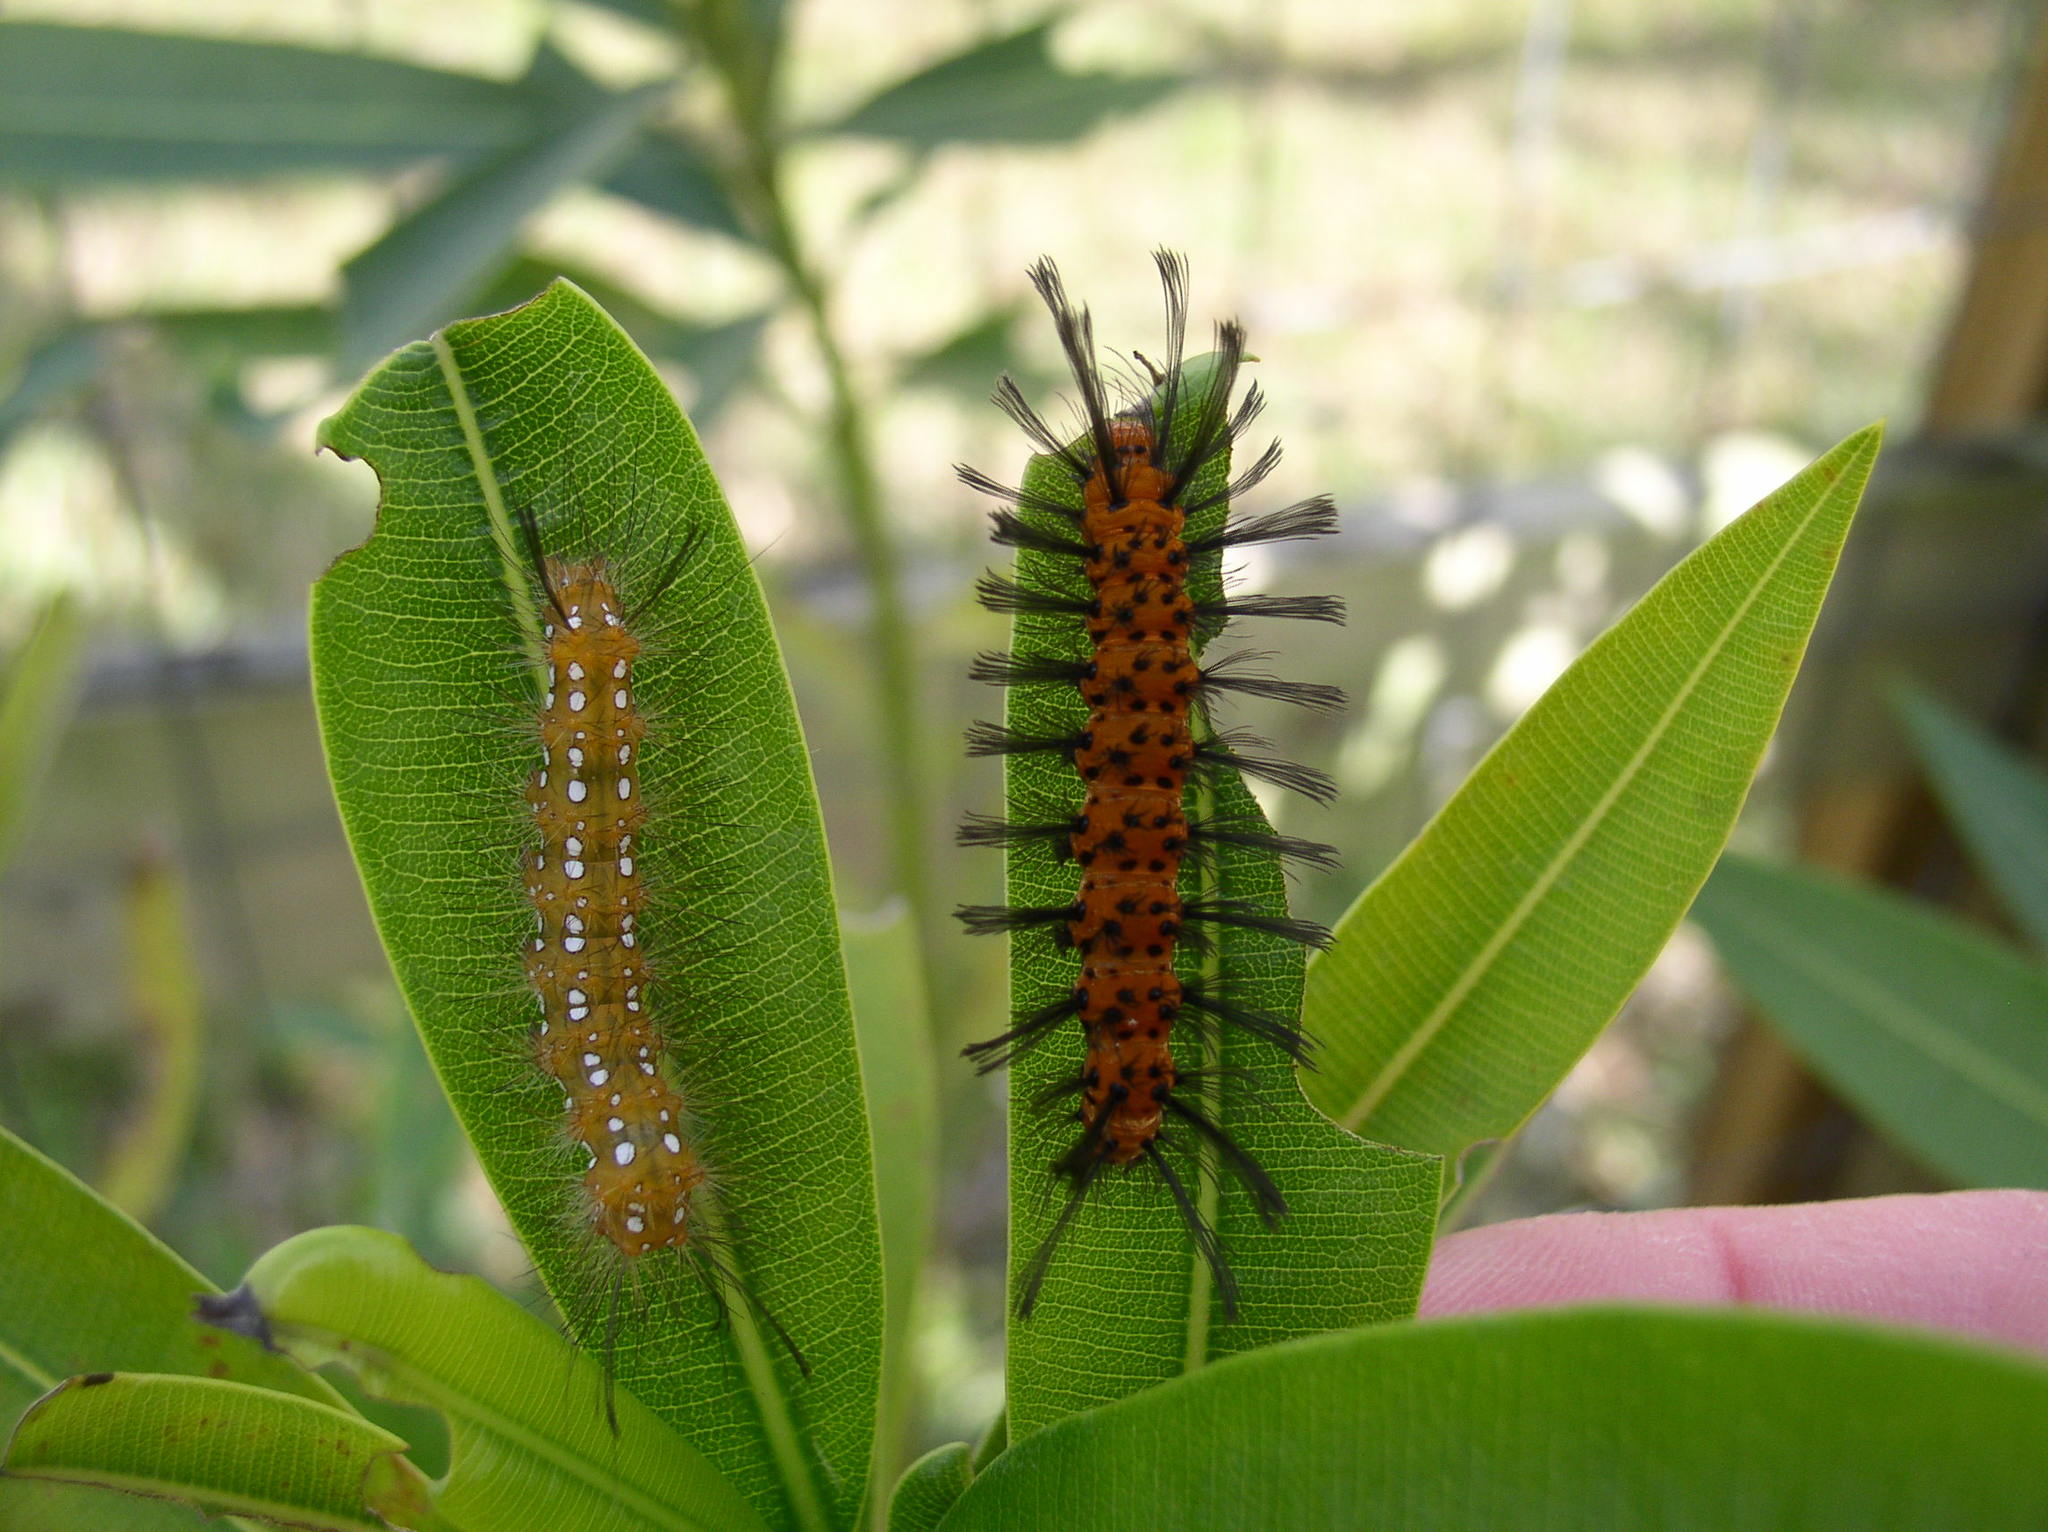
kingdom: Animalia
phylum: Arthropoda
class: Insecta
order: Lepidoptera
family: Erebidae
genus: Empyreuma
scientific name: Empyreuma pugione
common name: Spotted oleander caterpillar moth
